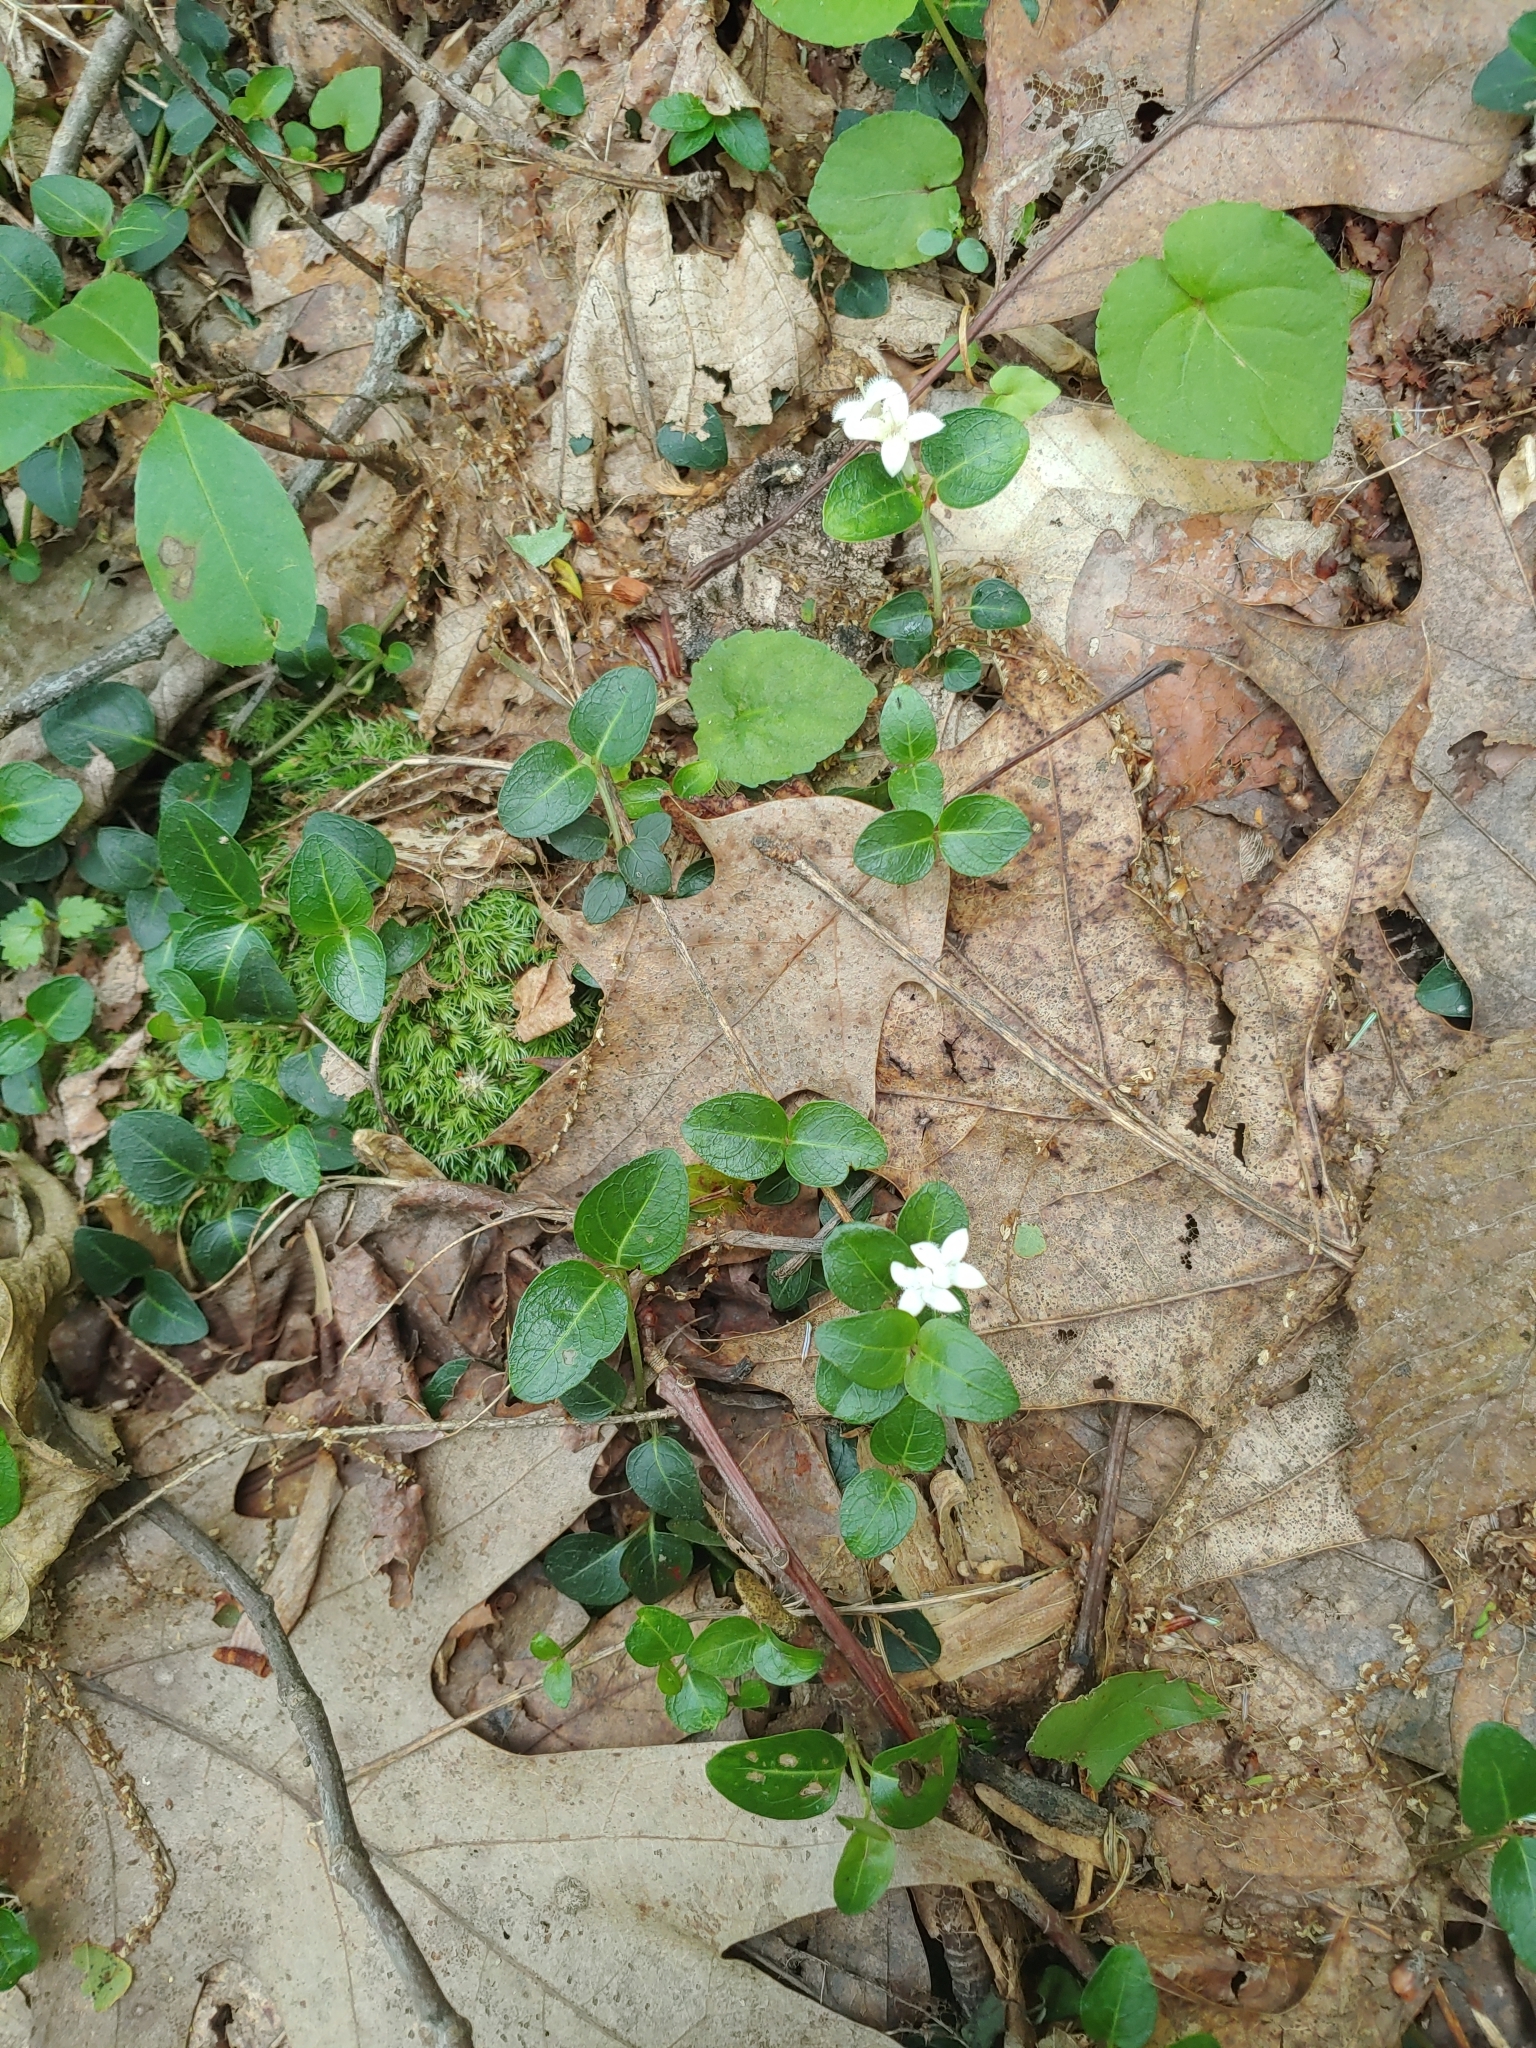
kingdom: Plantae
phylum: Tracheophyta
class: Magnoliopsida
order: Gentianales
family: Rubiaceae
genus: Mitchella
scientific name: Mitchella repens
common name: Partridge-berry
